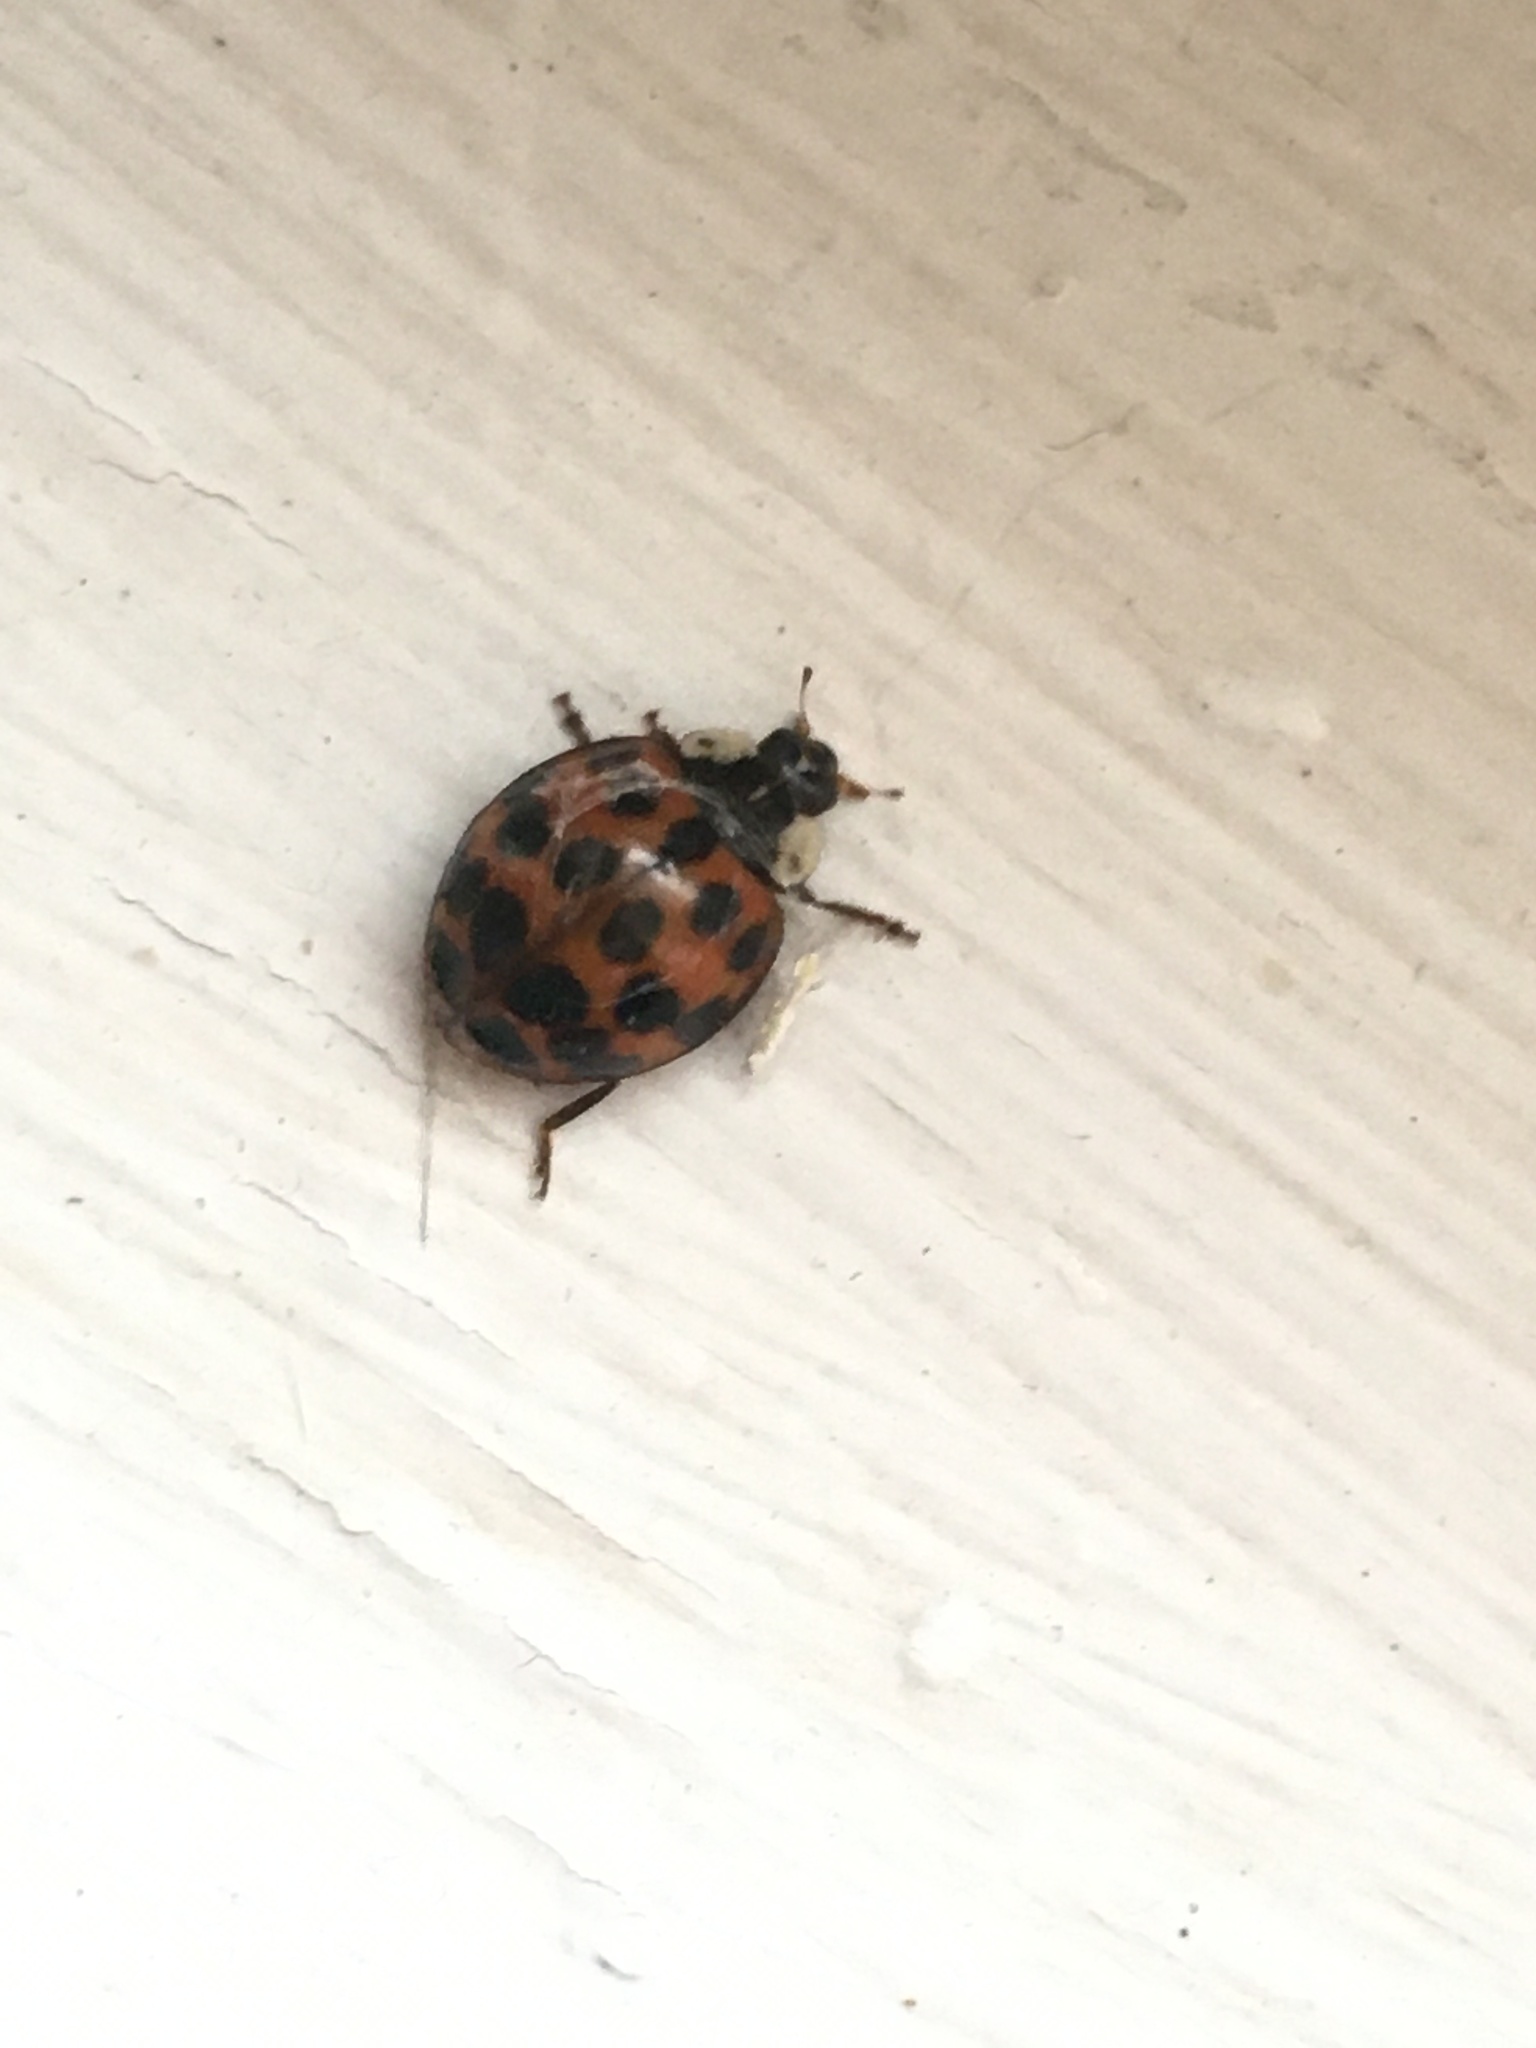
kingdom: Animalia
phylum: Arthropoda
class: Insecta
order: Coleoptera
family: Coccinellidae
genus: Harmonia
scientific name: Harmonia axyridis
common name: Harlequin ladybird
